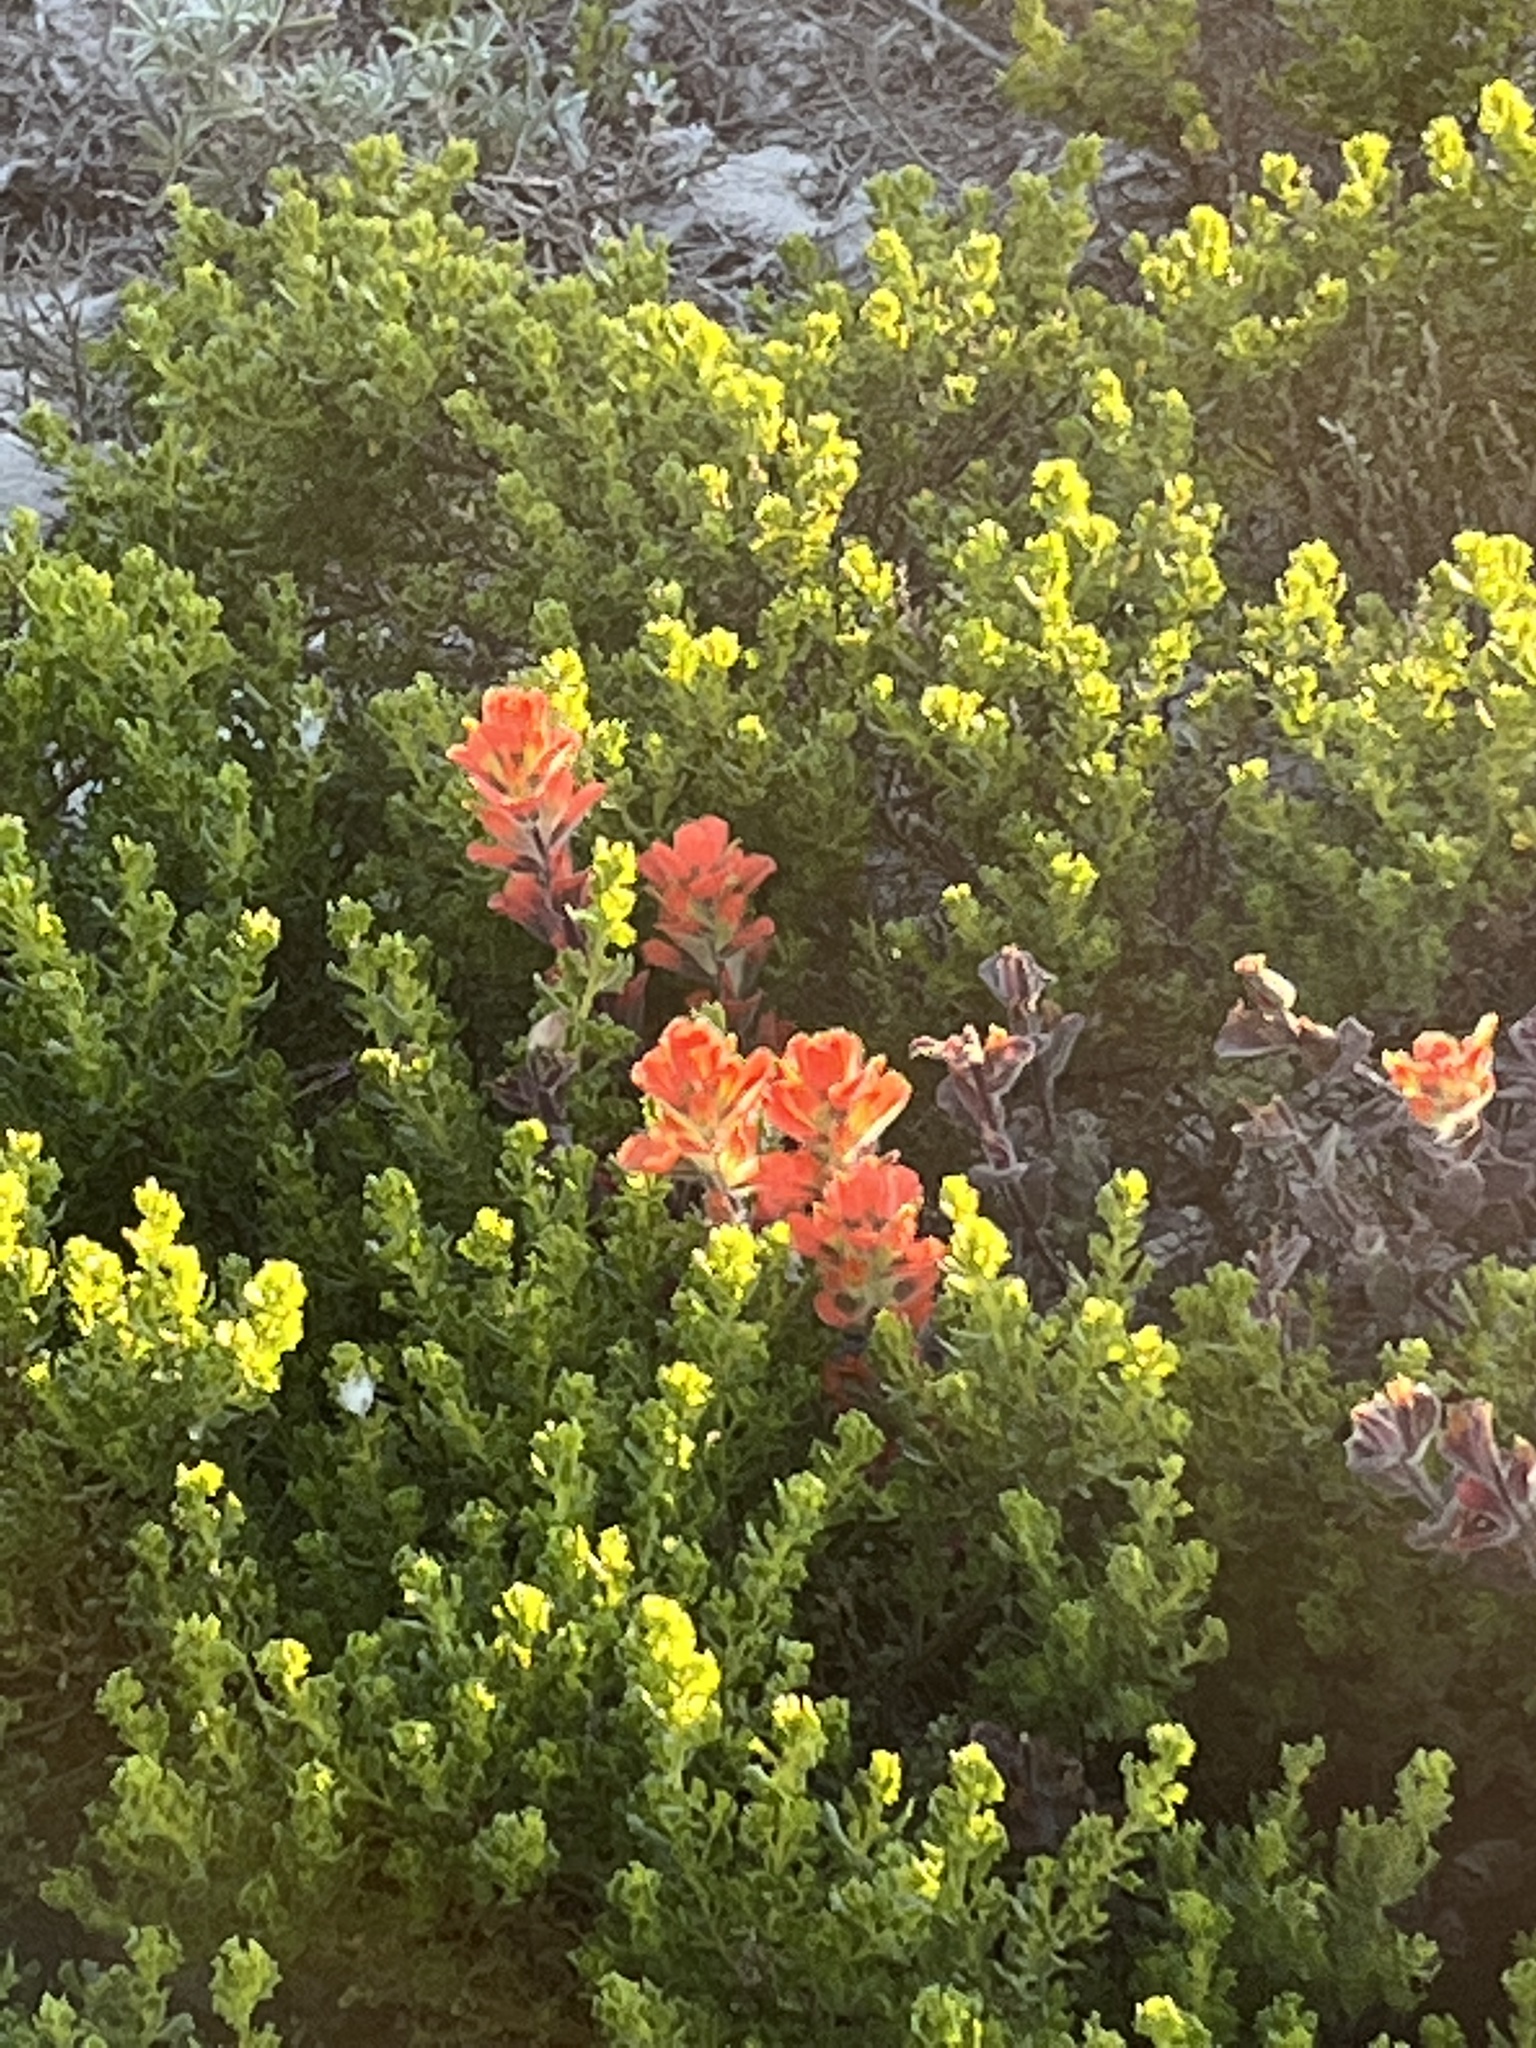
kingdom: Plantae
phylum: Tracheophyta
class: Magnoliopsida
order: Lamiales
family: Orobanchaceae
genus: Castilleja
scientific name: Castilleja latifolia
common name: Monterey indian paintbrush
